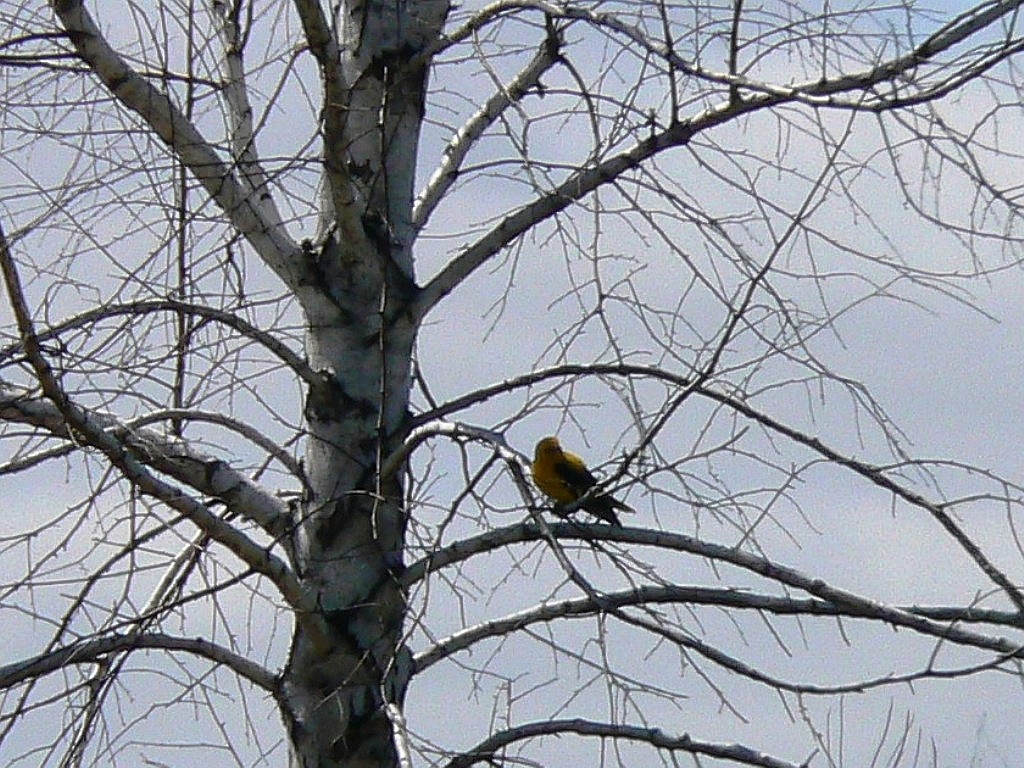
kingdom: Animalia
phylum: Chordata
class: Aves
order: Passeriformes
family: Oriolidae
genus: Oriolus
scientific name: Oriolus oriolus
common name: Eurasian golden oriole
